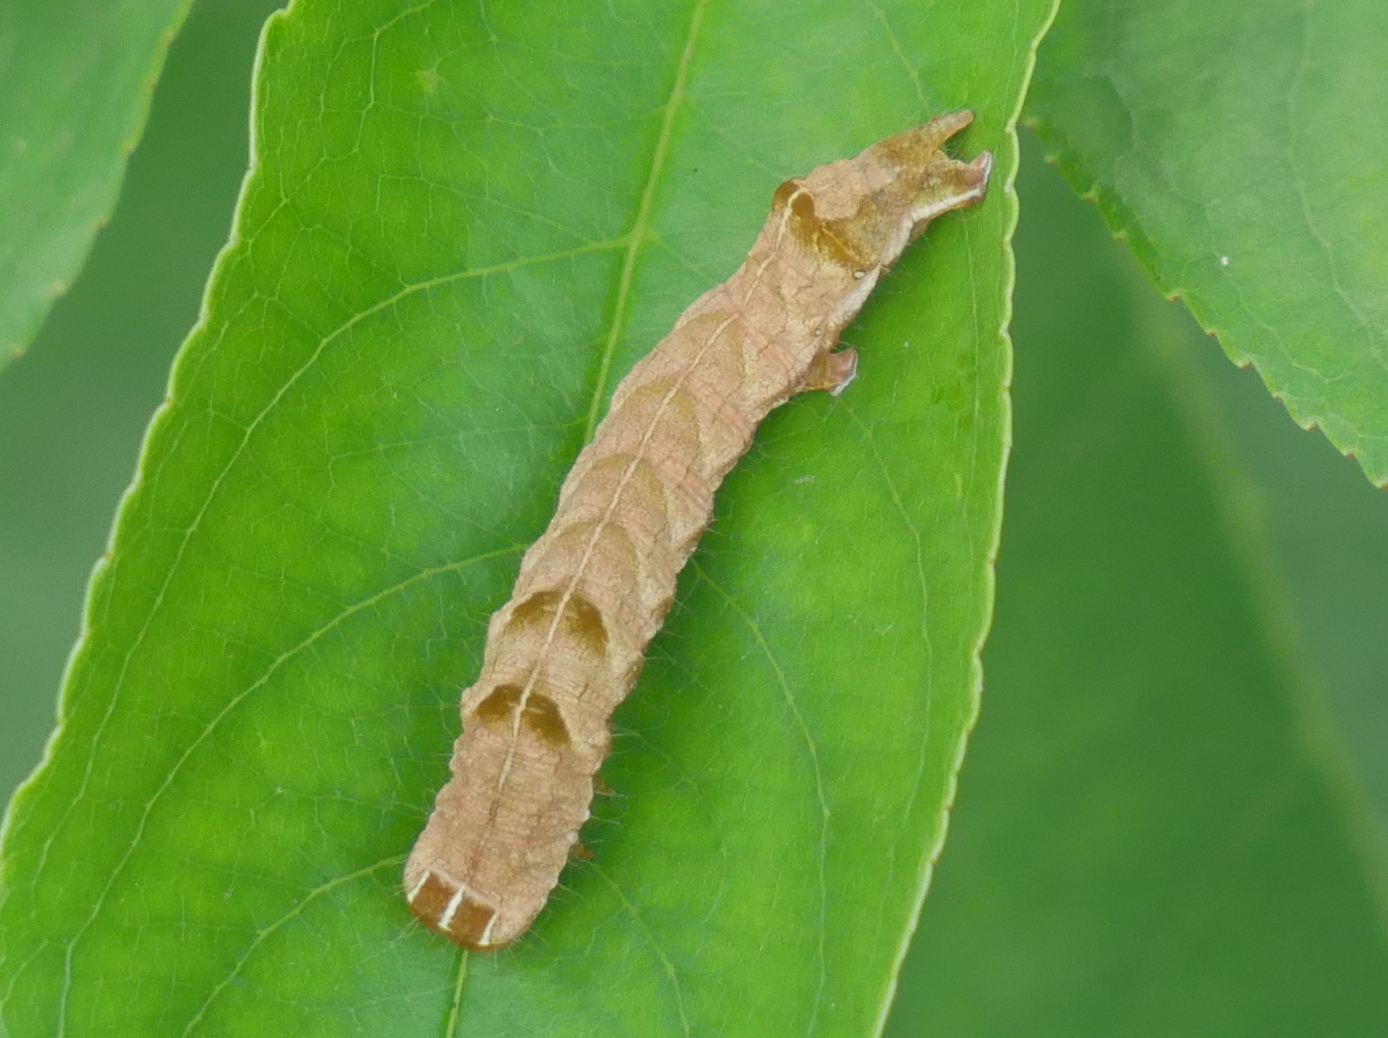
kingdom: Animalia
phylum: Arthropoda
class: Insecta
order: Lepidoptera
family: Noctuidae
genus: Melanchra
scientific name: Melanchra persicariae
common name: Dot moth
